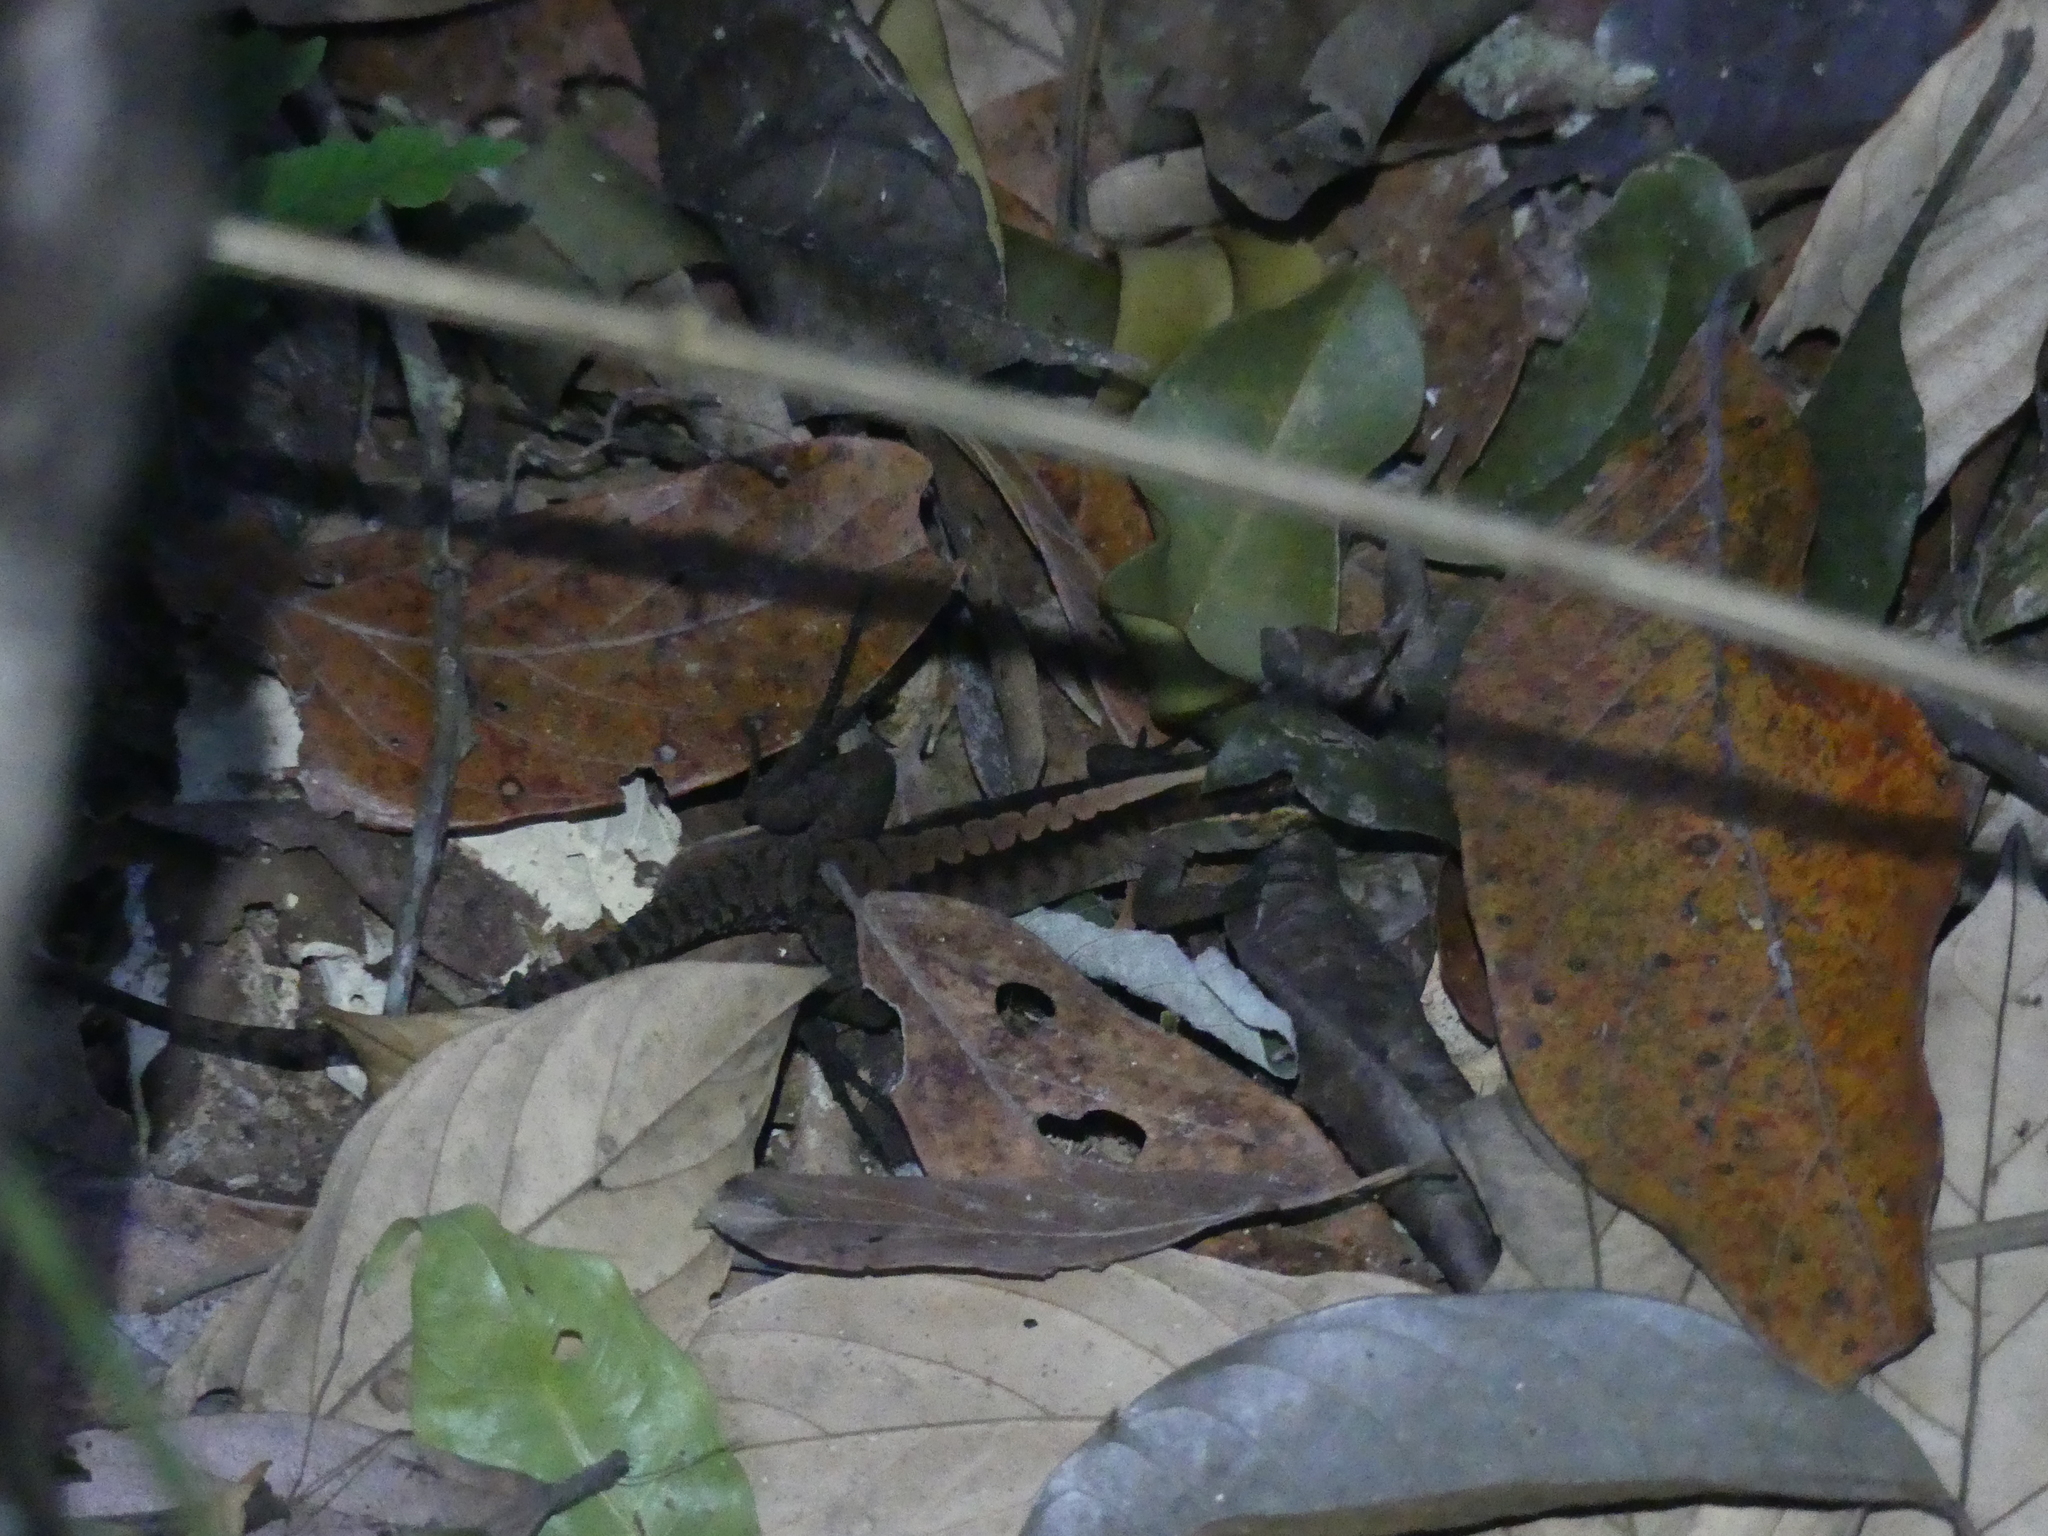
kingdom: Animalia
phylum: Chordata
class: Squamata
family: Teiidae
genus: Kentropyx
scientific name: Kentropyx pelviceps
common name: Forest whiptail
